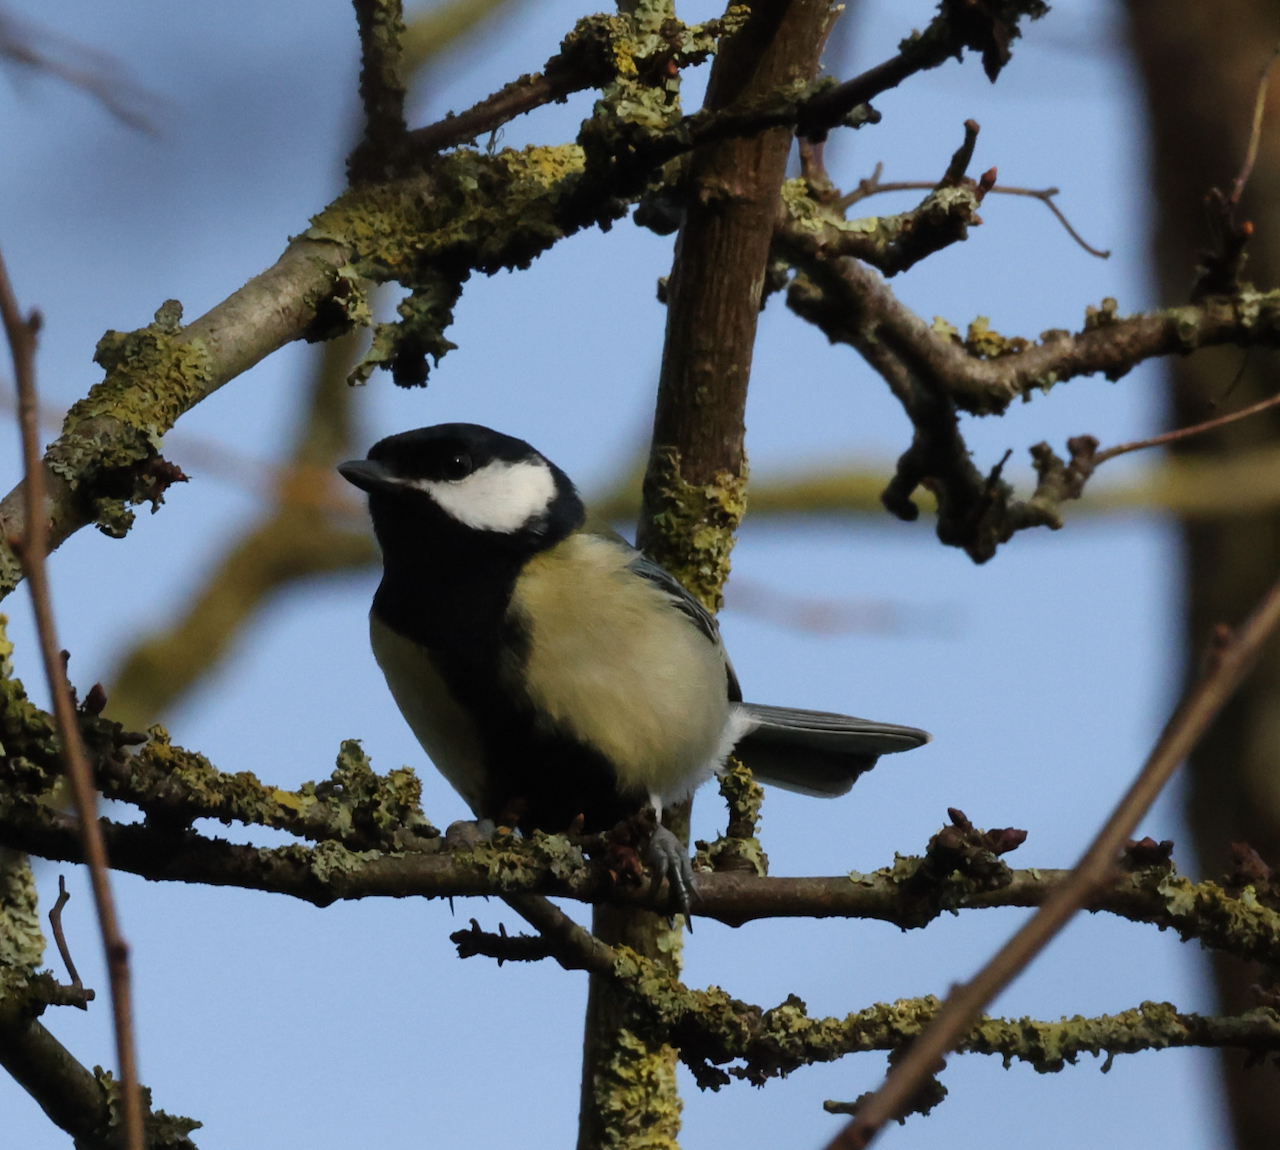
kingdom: Animalia
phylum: Chordata
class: Aves
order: Passeriformes
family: Paridae
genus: Parus
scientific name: Parus major
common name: Great tit
